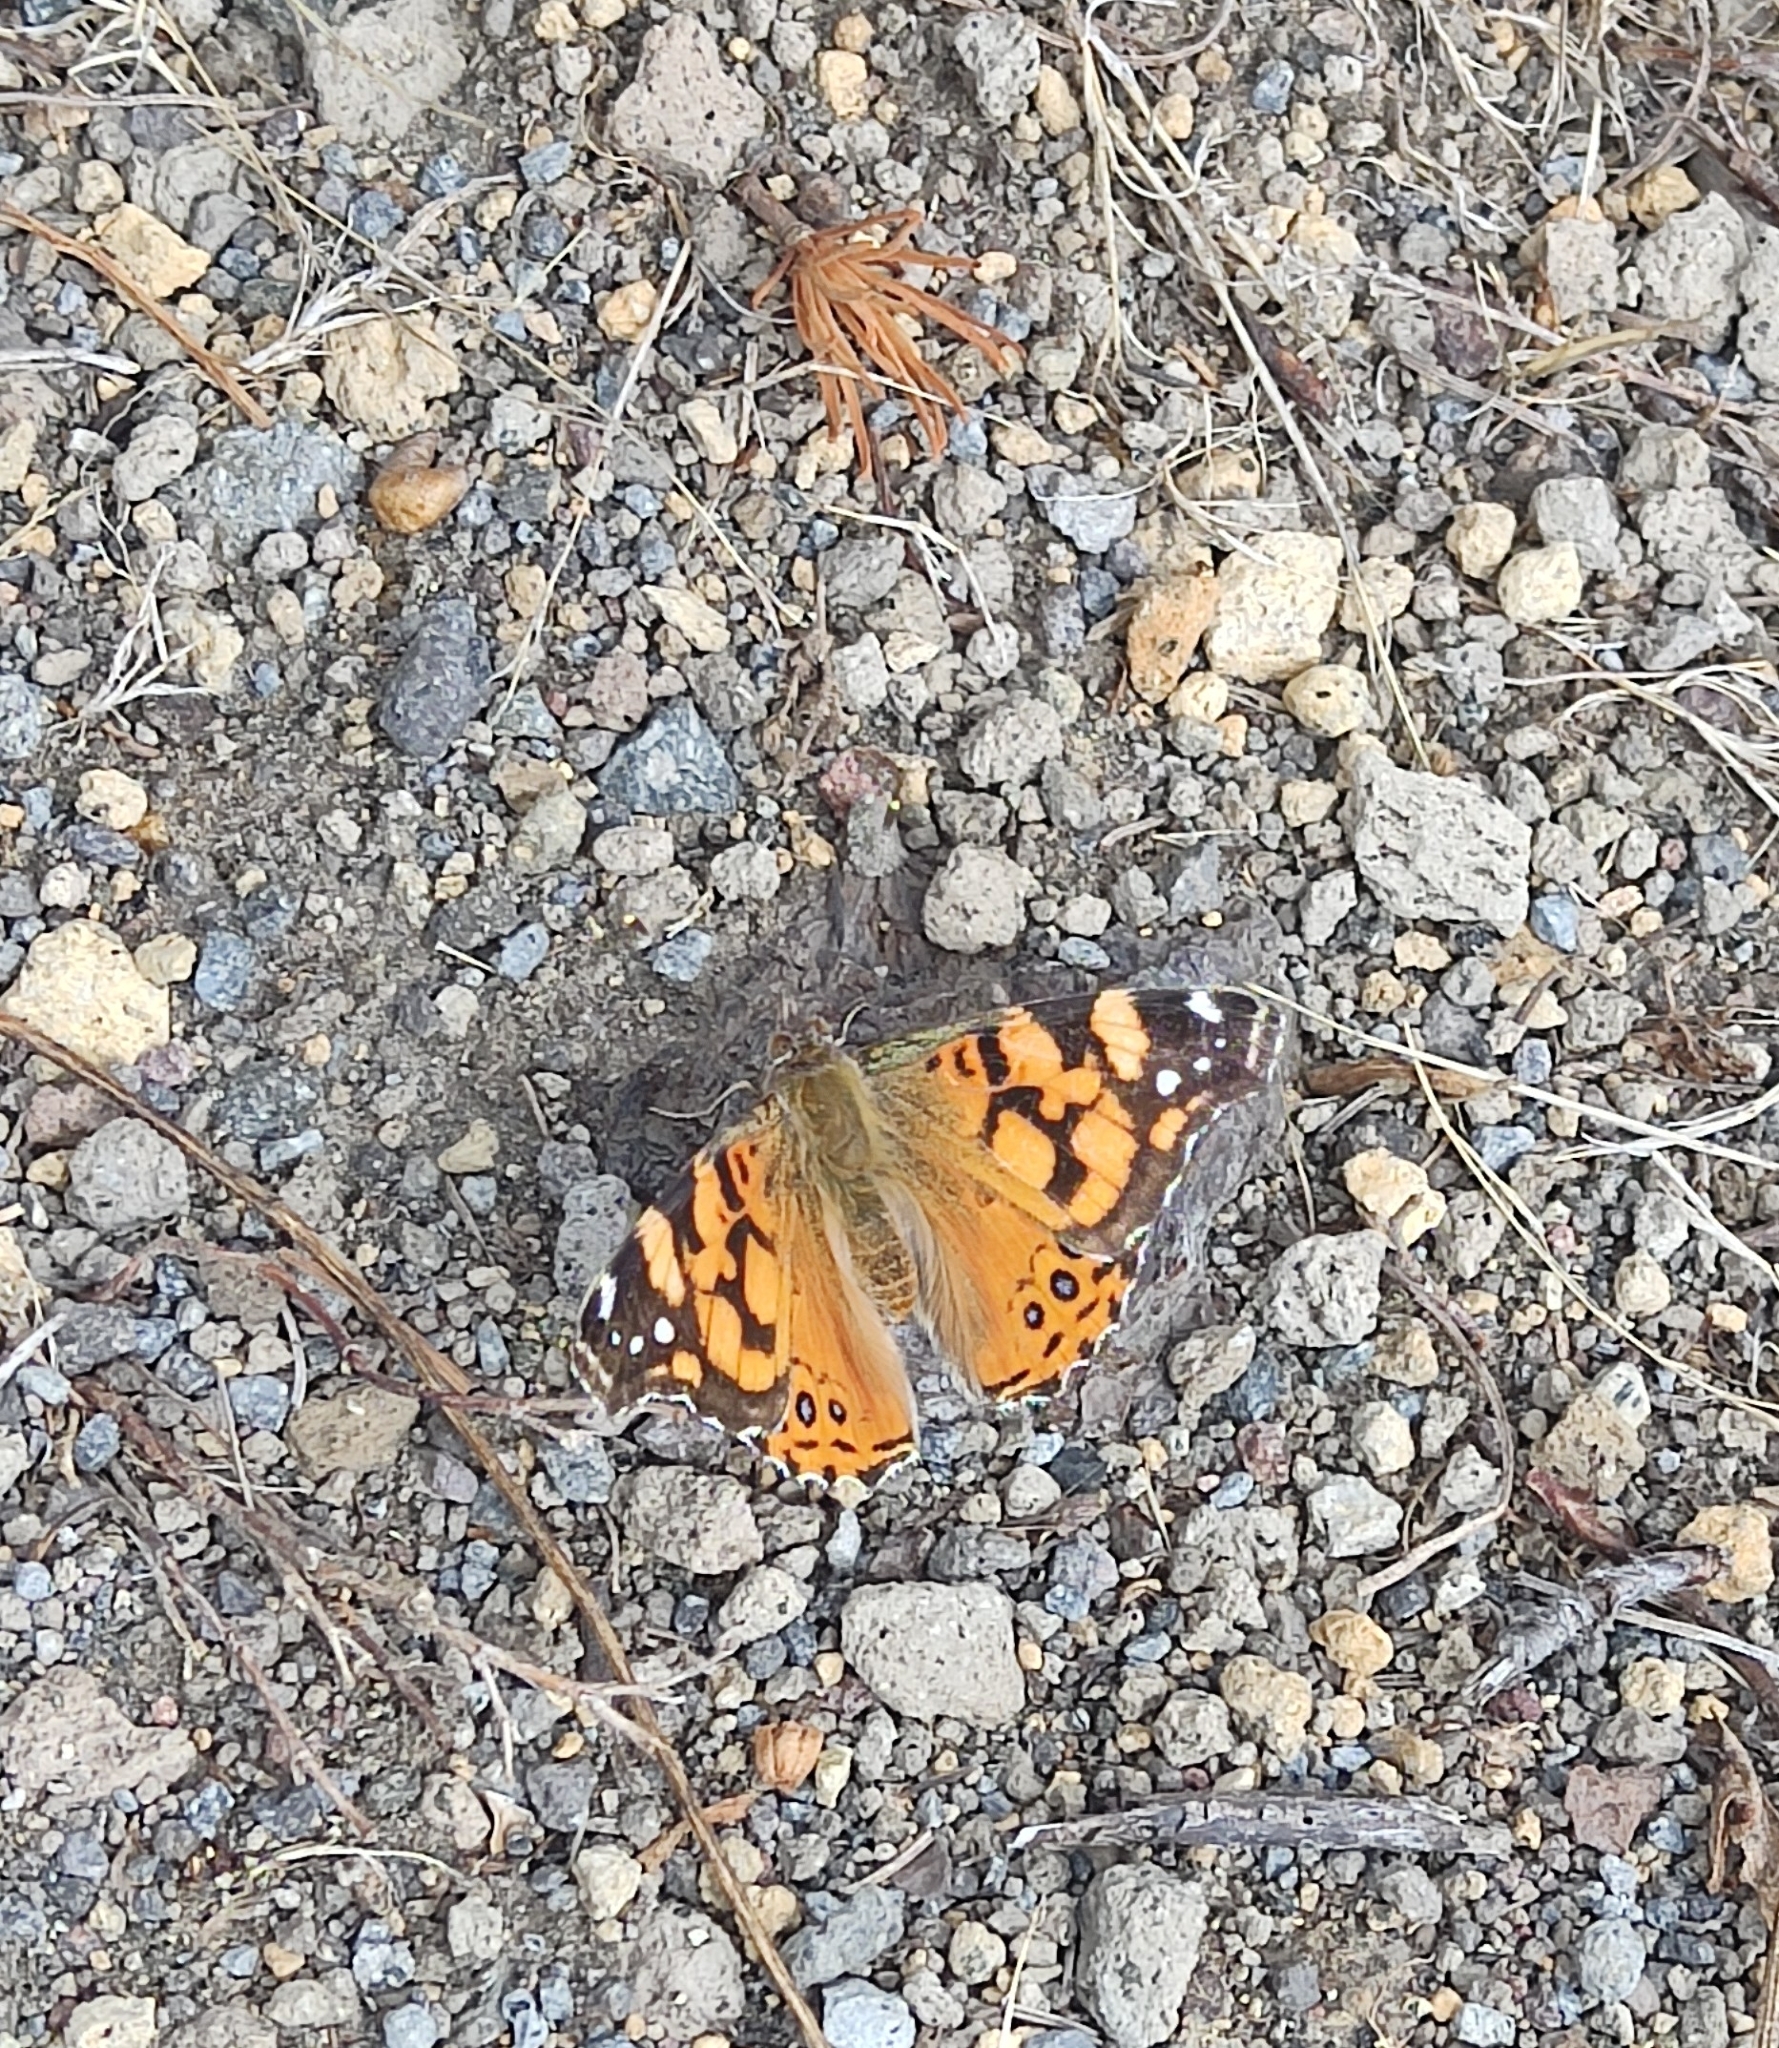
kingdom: Animalia
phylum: Arthropoda
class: Insecta
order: Lepidoptera
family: Nymphalidae
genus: Vanessa
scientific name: Vanessa annabella
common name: West coast lady
